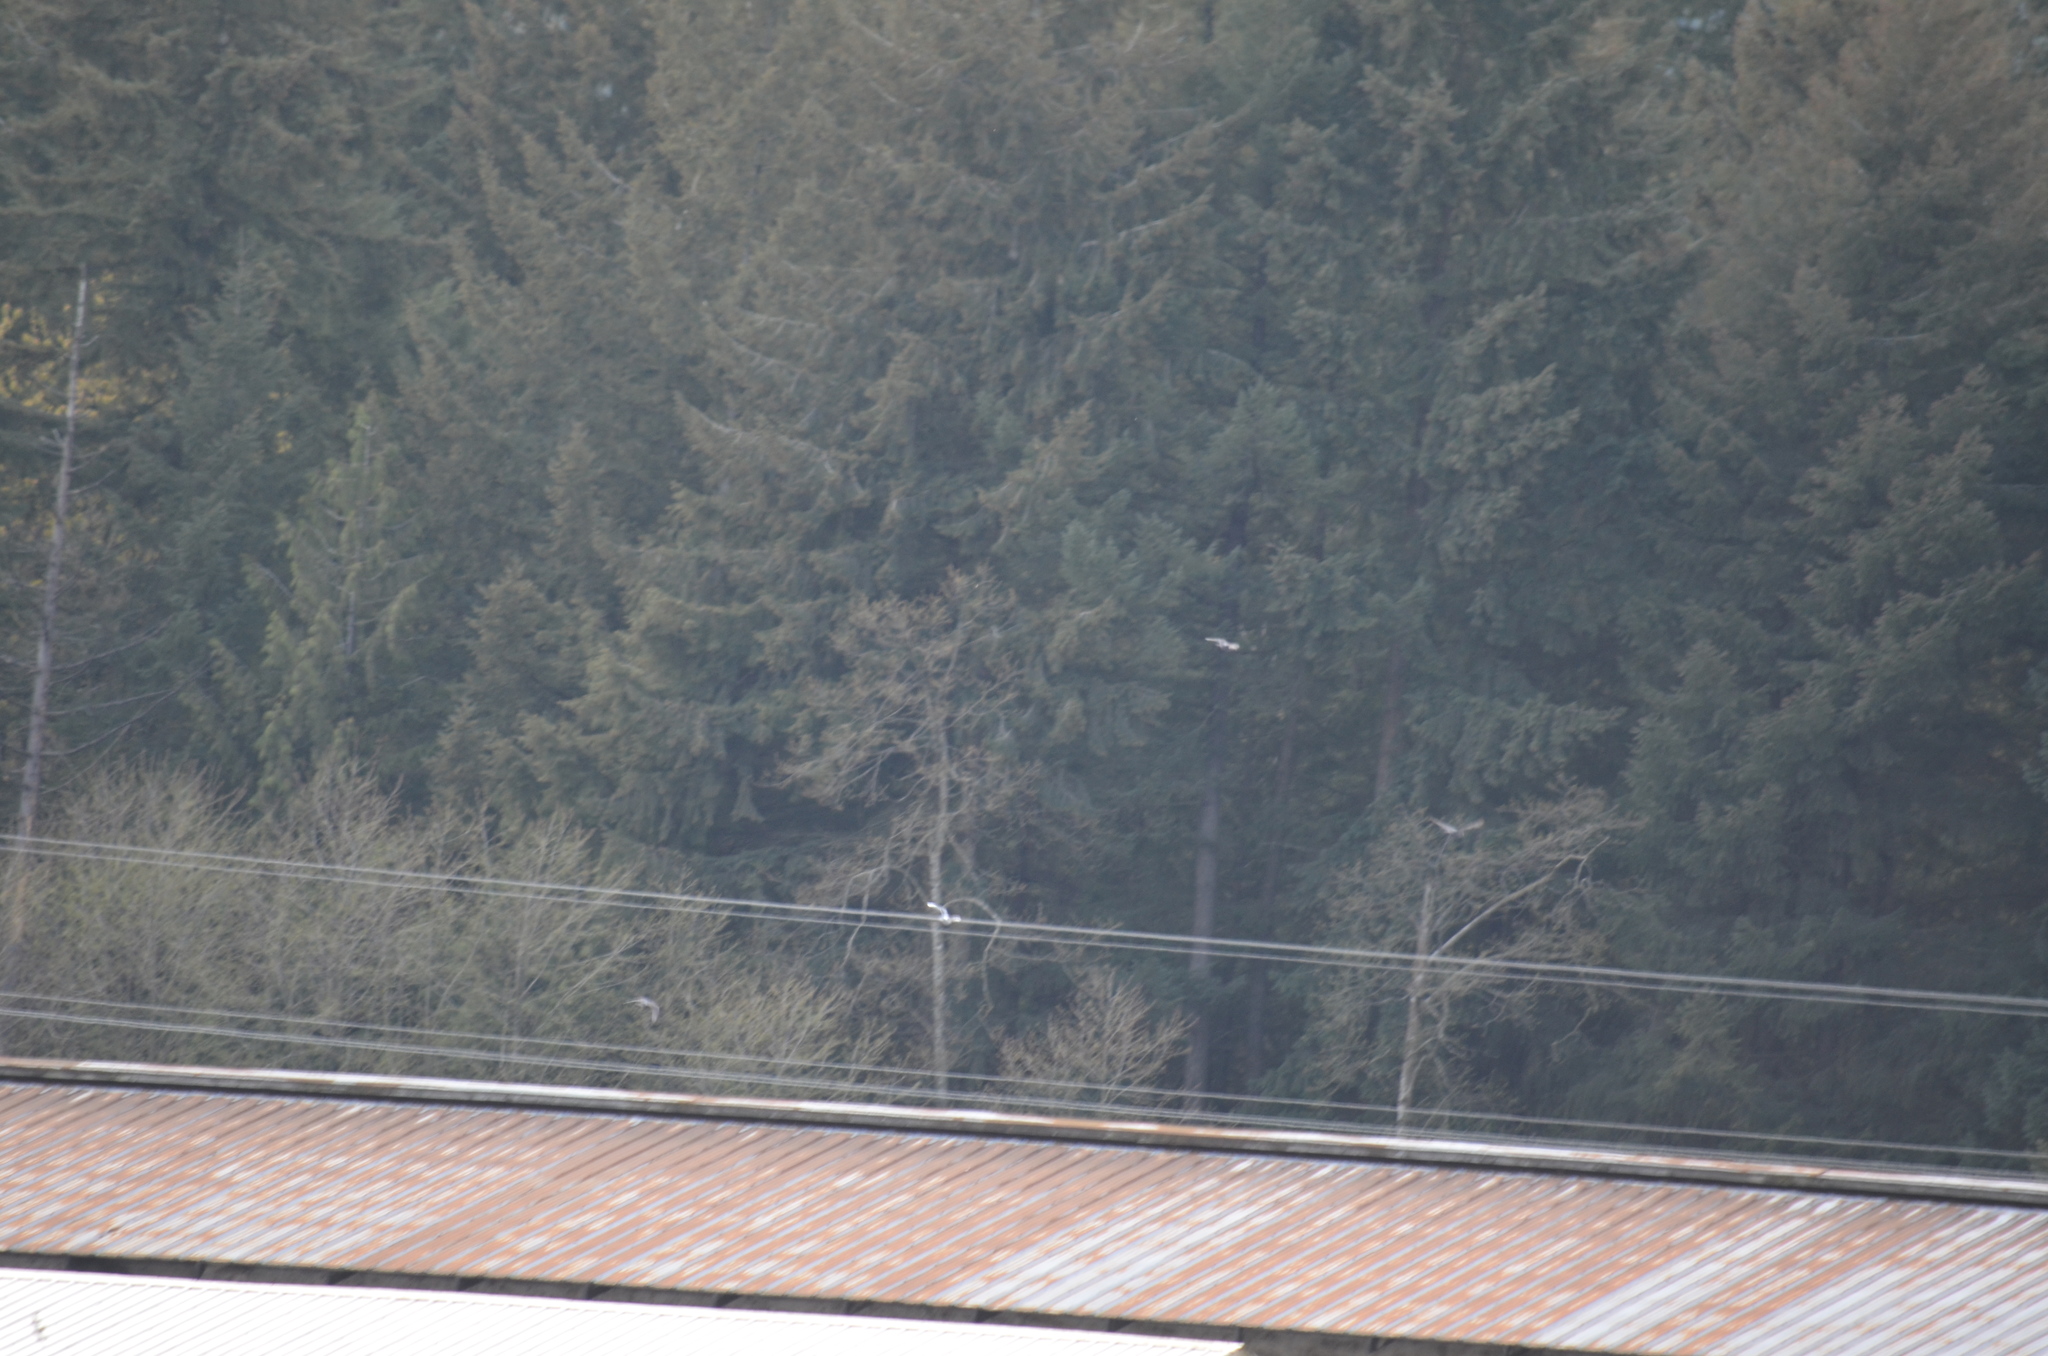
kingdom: Animalia
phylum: Chordata
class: Aves
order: Columbiformes
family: Columbidae
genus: Columba
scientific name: Columba livia
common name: Rock pigeon
